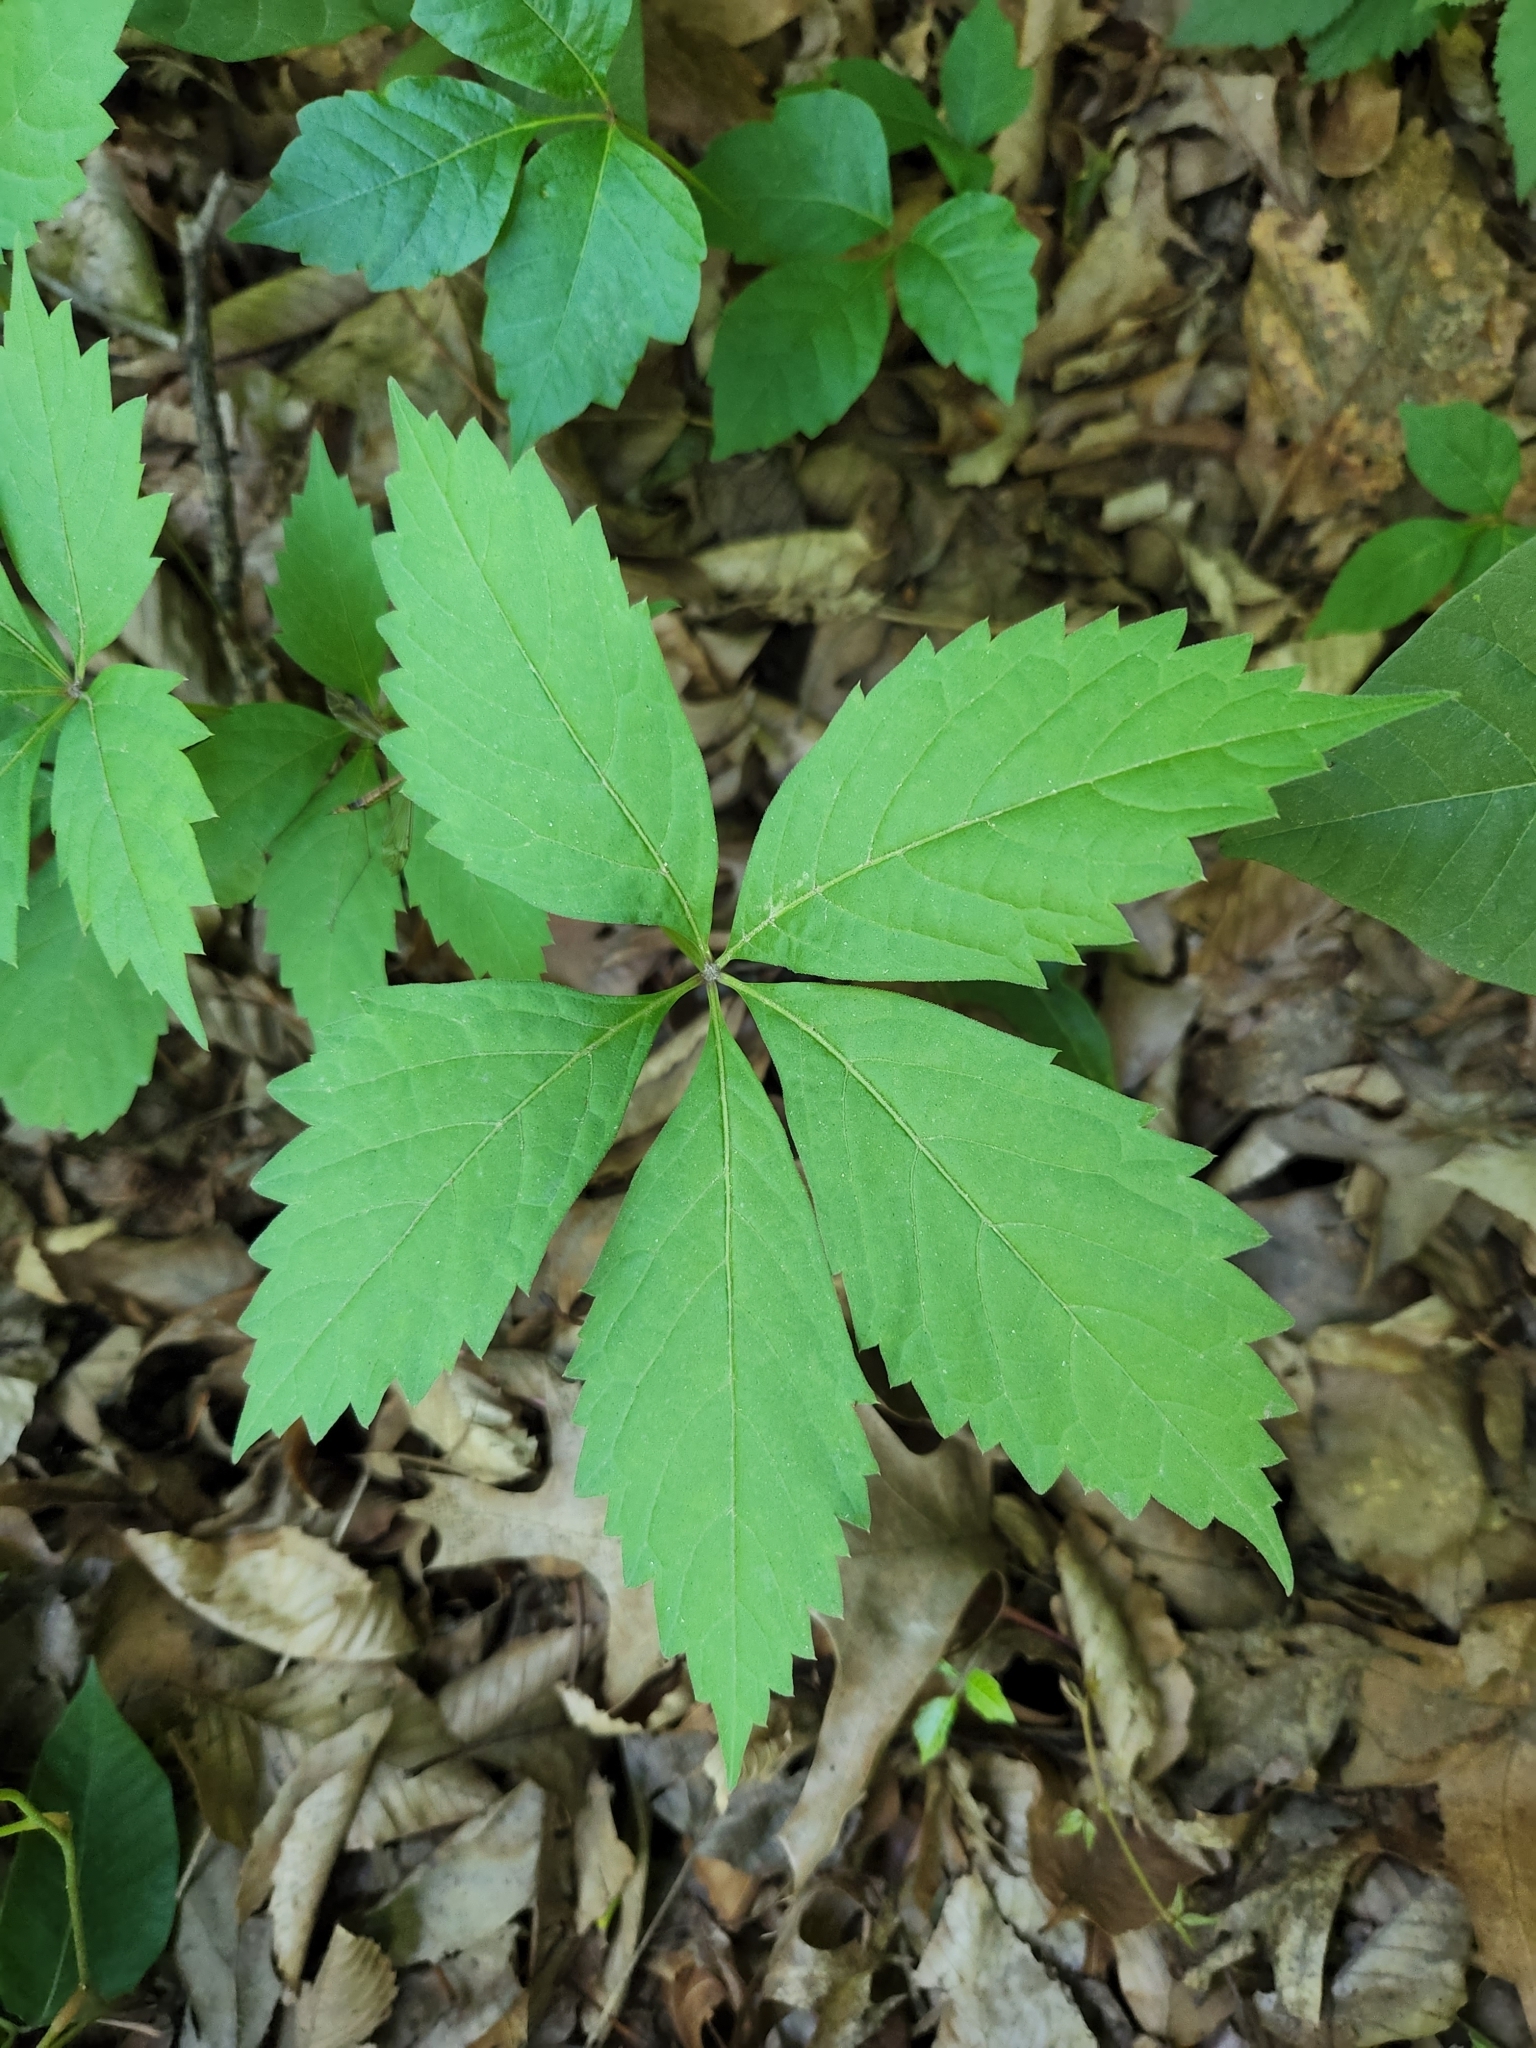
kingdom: Plantae
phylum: Tracheophyta
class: Magnoliopsida
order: Vitales
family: Vitaceae
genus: Parthenocissus
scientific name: Parthenocissus quinquefolia
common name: Virginia-creeper
